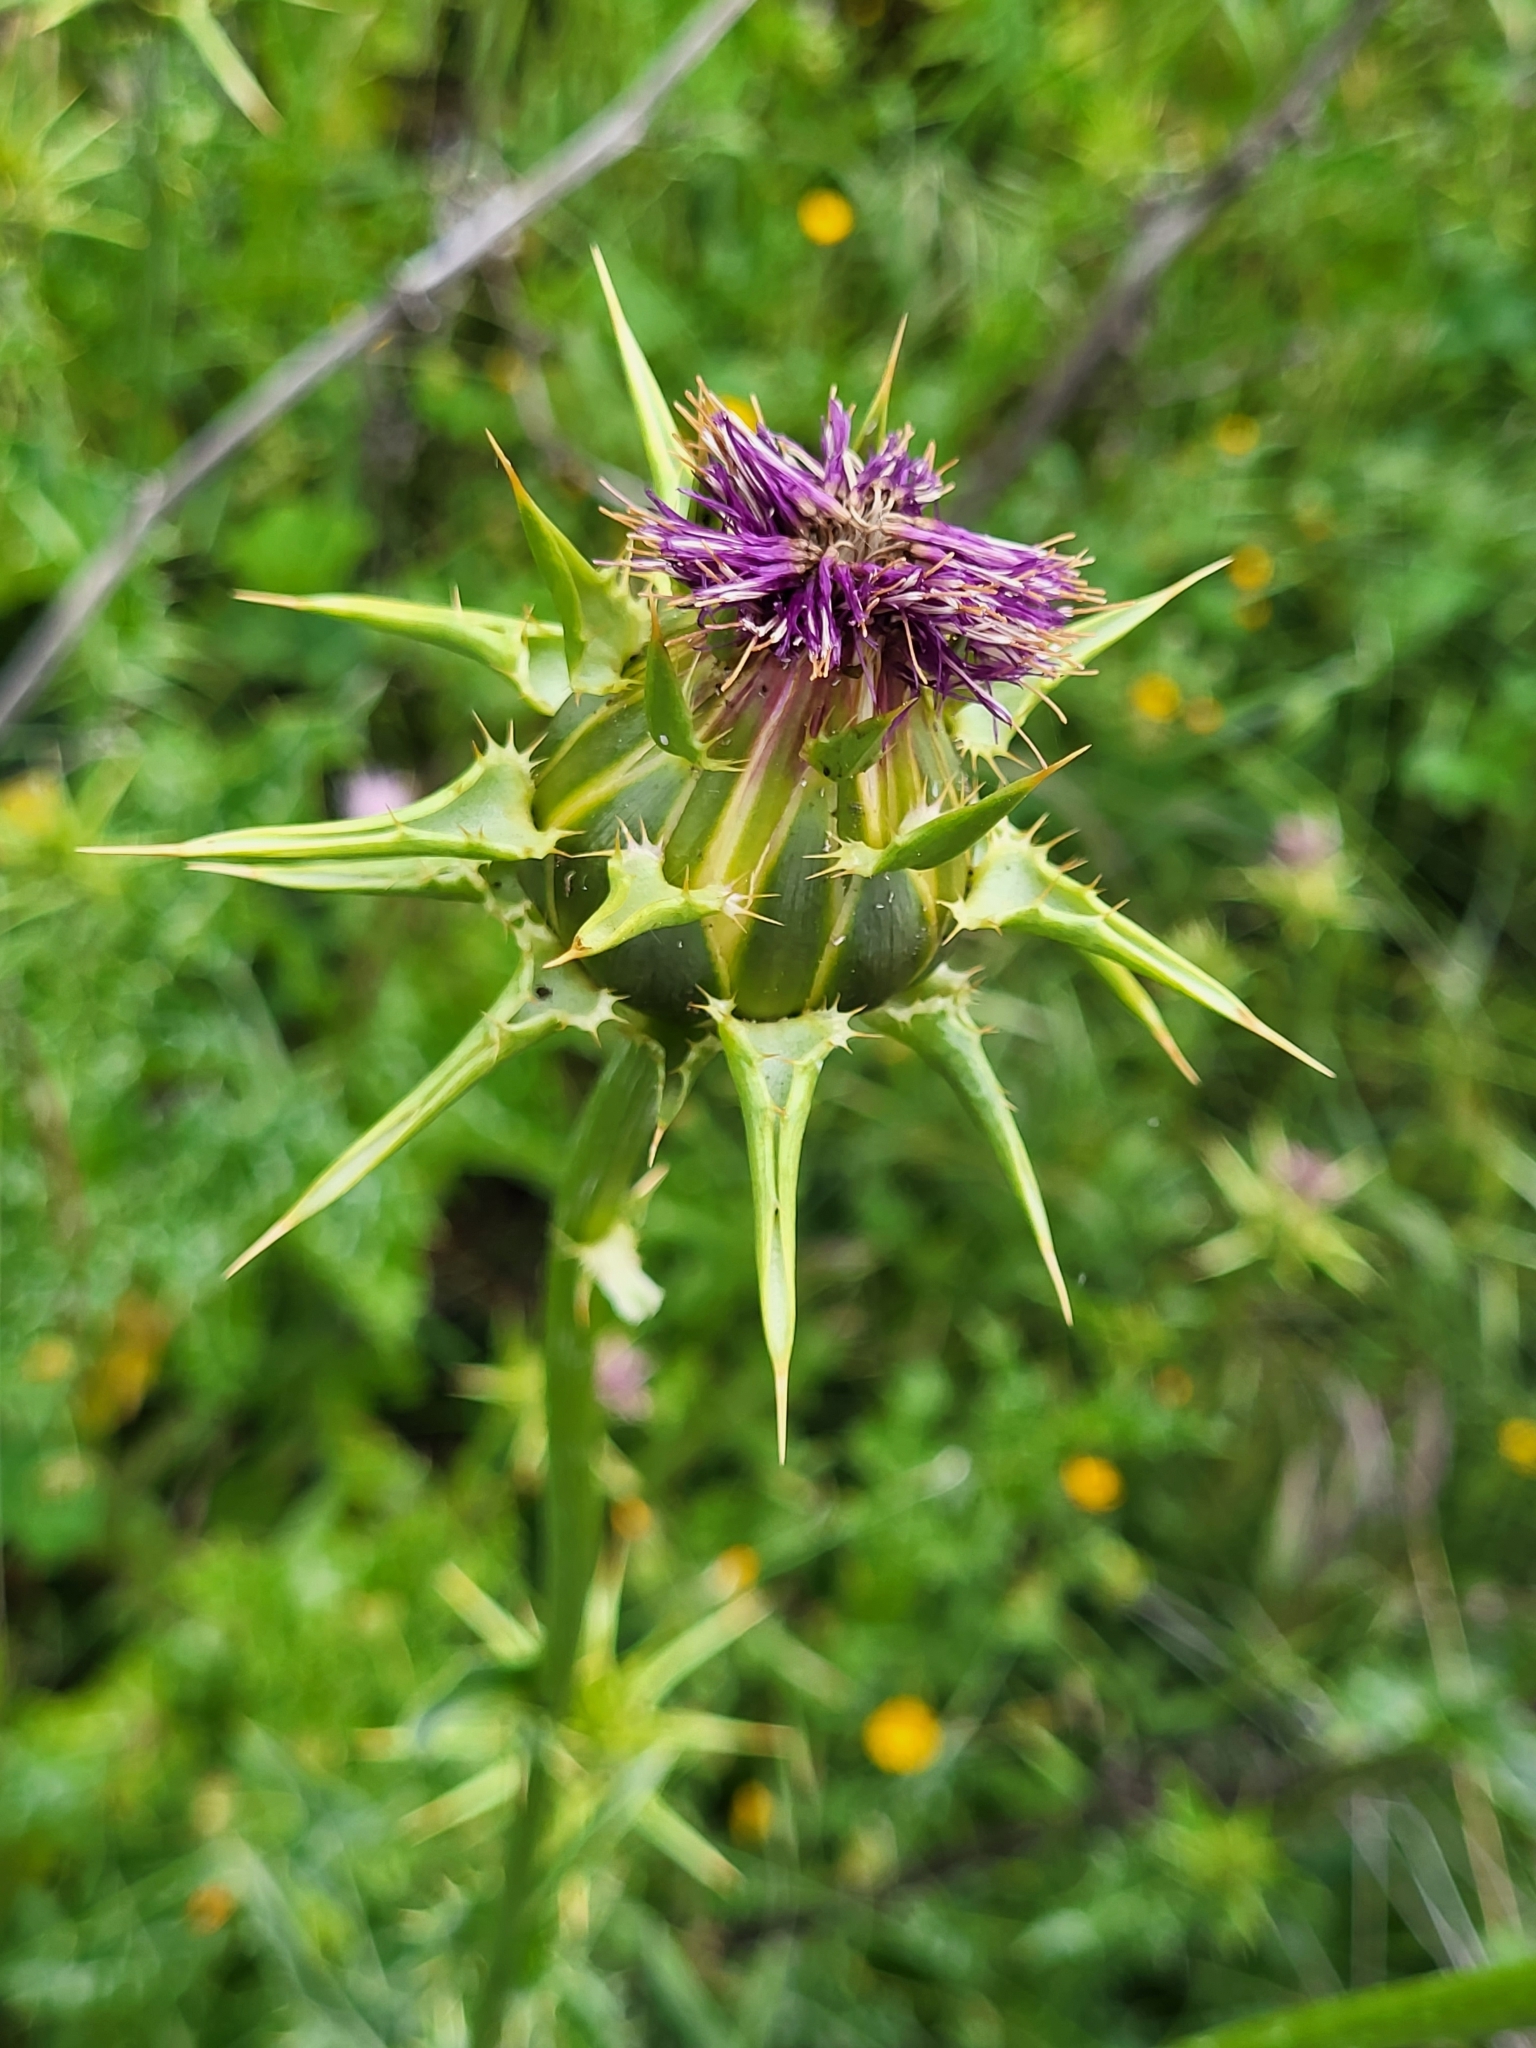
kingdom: Plantae
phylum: Tracheophyta
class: Magnoliopsida
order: Asterales
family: Asteraceae
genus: Silybum
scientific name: Silybum marianum
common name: Milk thistle
